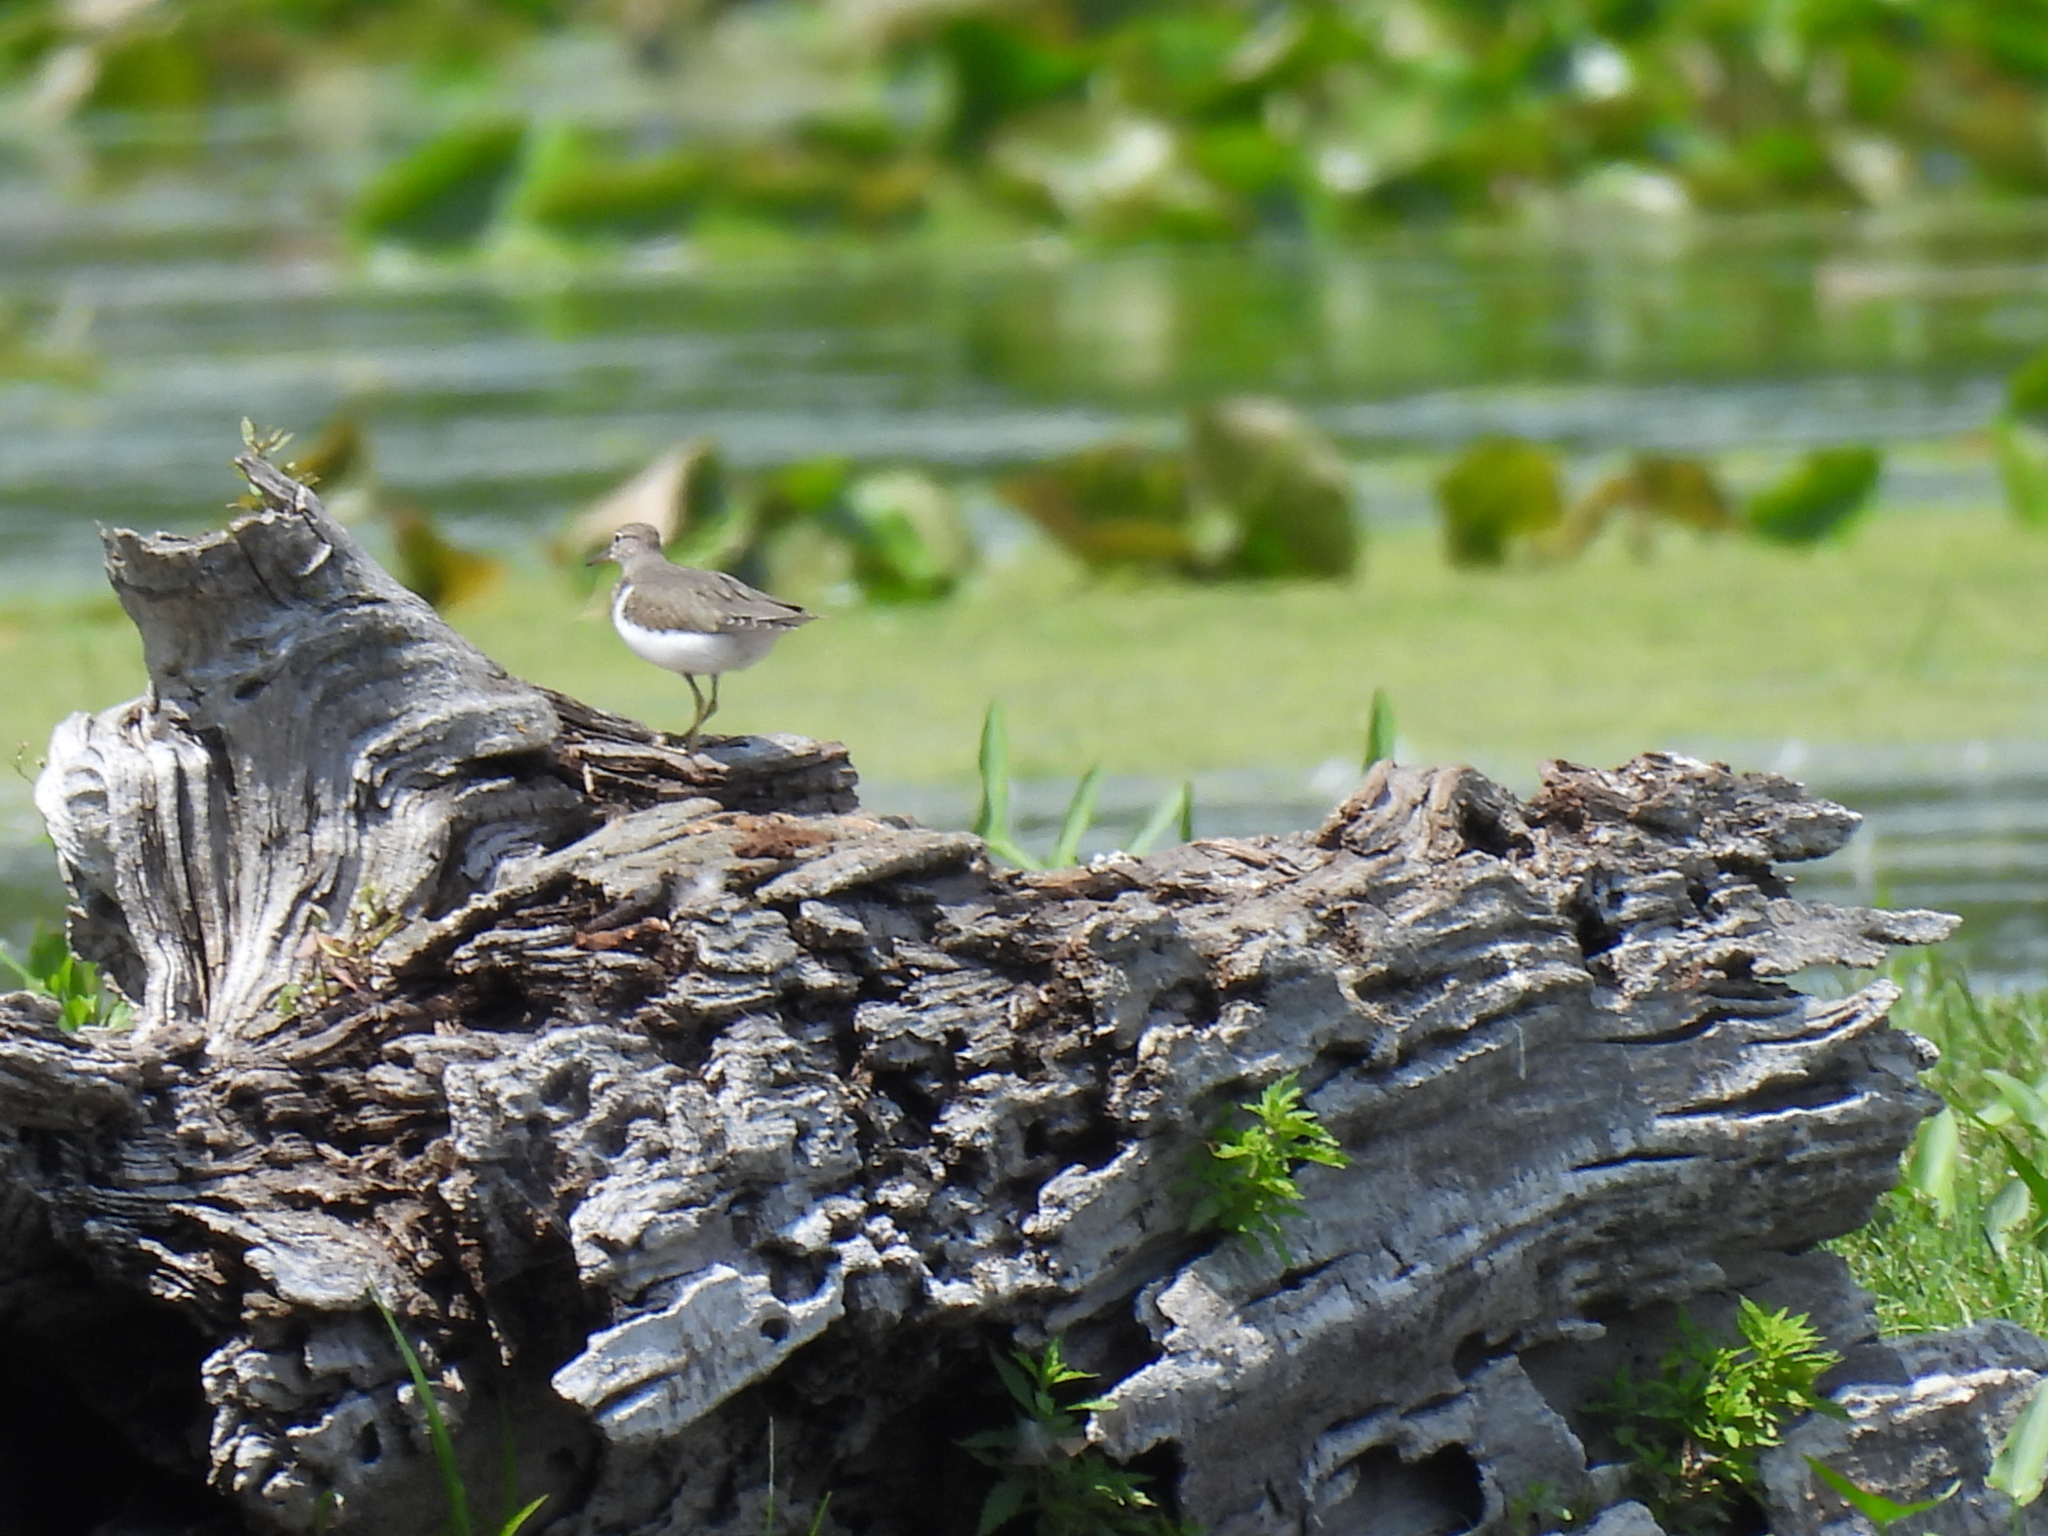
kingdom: Animalia
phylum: Chordata
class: Aves
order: Charadriiformes
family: Scolopacidae
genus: Actitis
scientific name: Actitis macularius
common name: Spotted sandpiper
